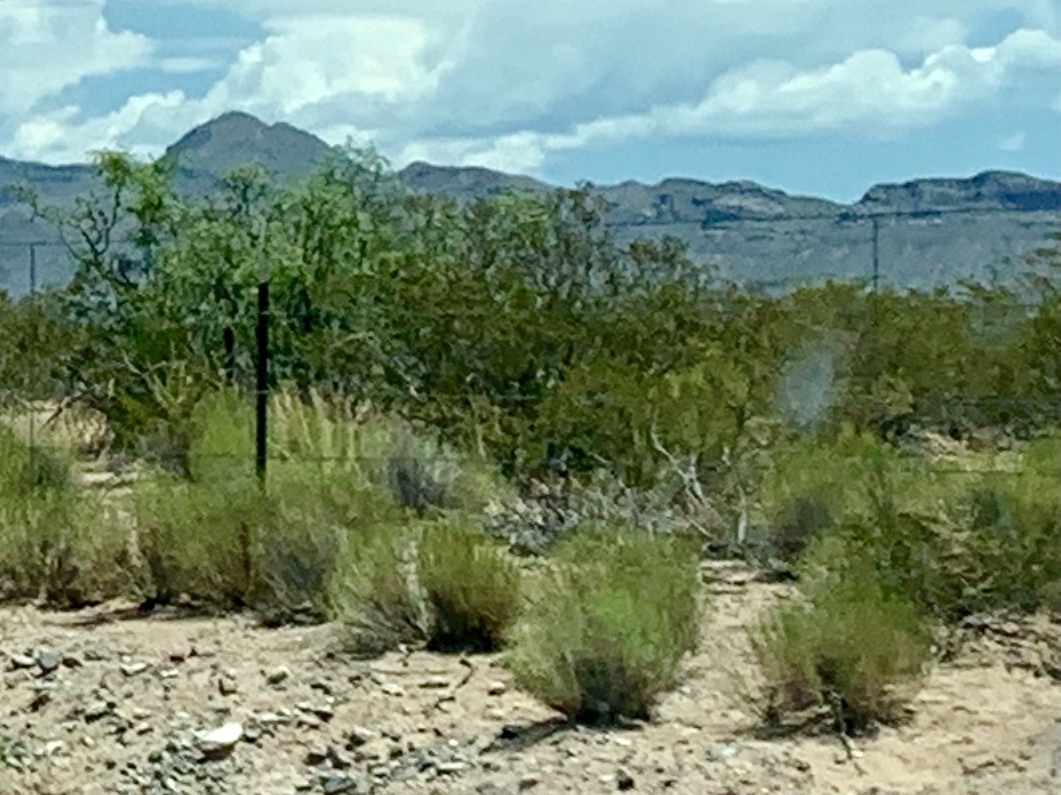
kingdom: Plantae
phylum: Tracheophyta
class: Magnoliopsida
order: Zygophyllales
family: Zygophyllaceae
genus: Larrea
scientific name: Larrea tridentata
